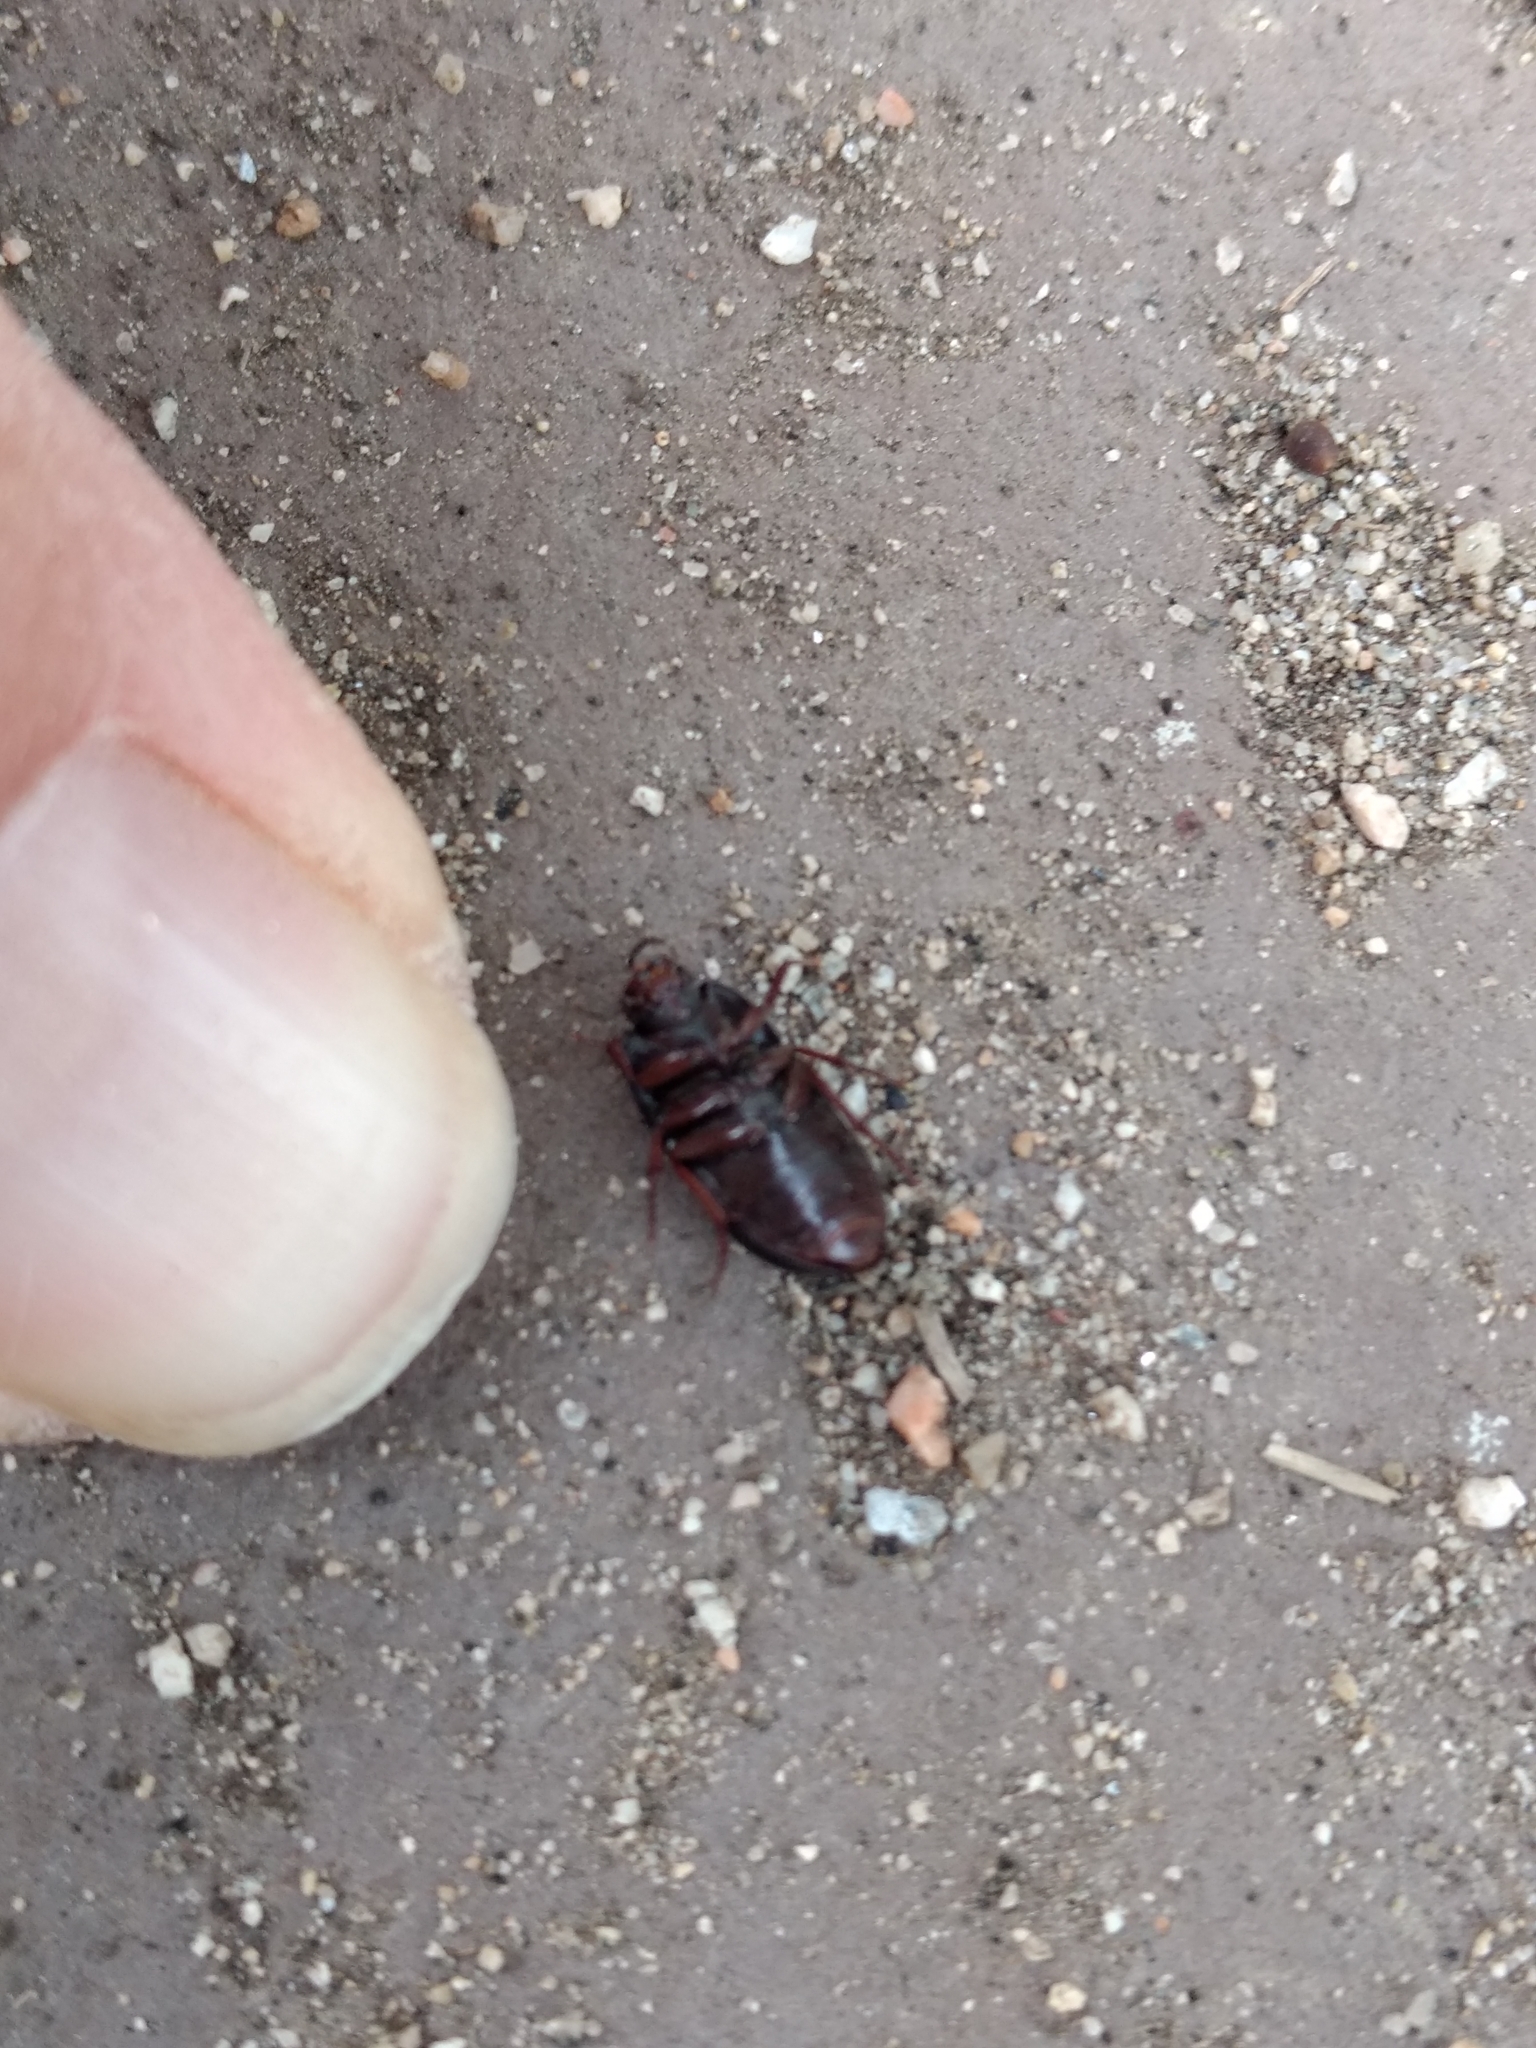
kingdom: Animalia
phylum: Arthropoda
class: Insecta
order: Coleoptera
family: Tenebrionidae
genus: Coniontis
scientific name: Coniontis
